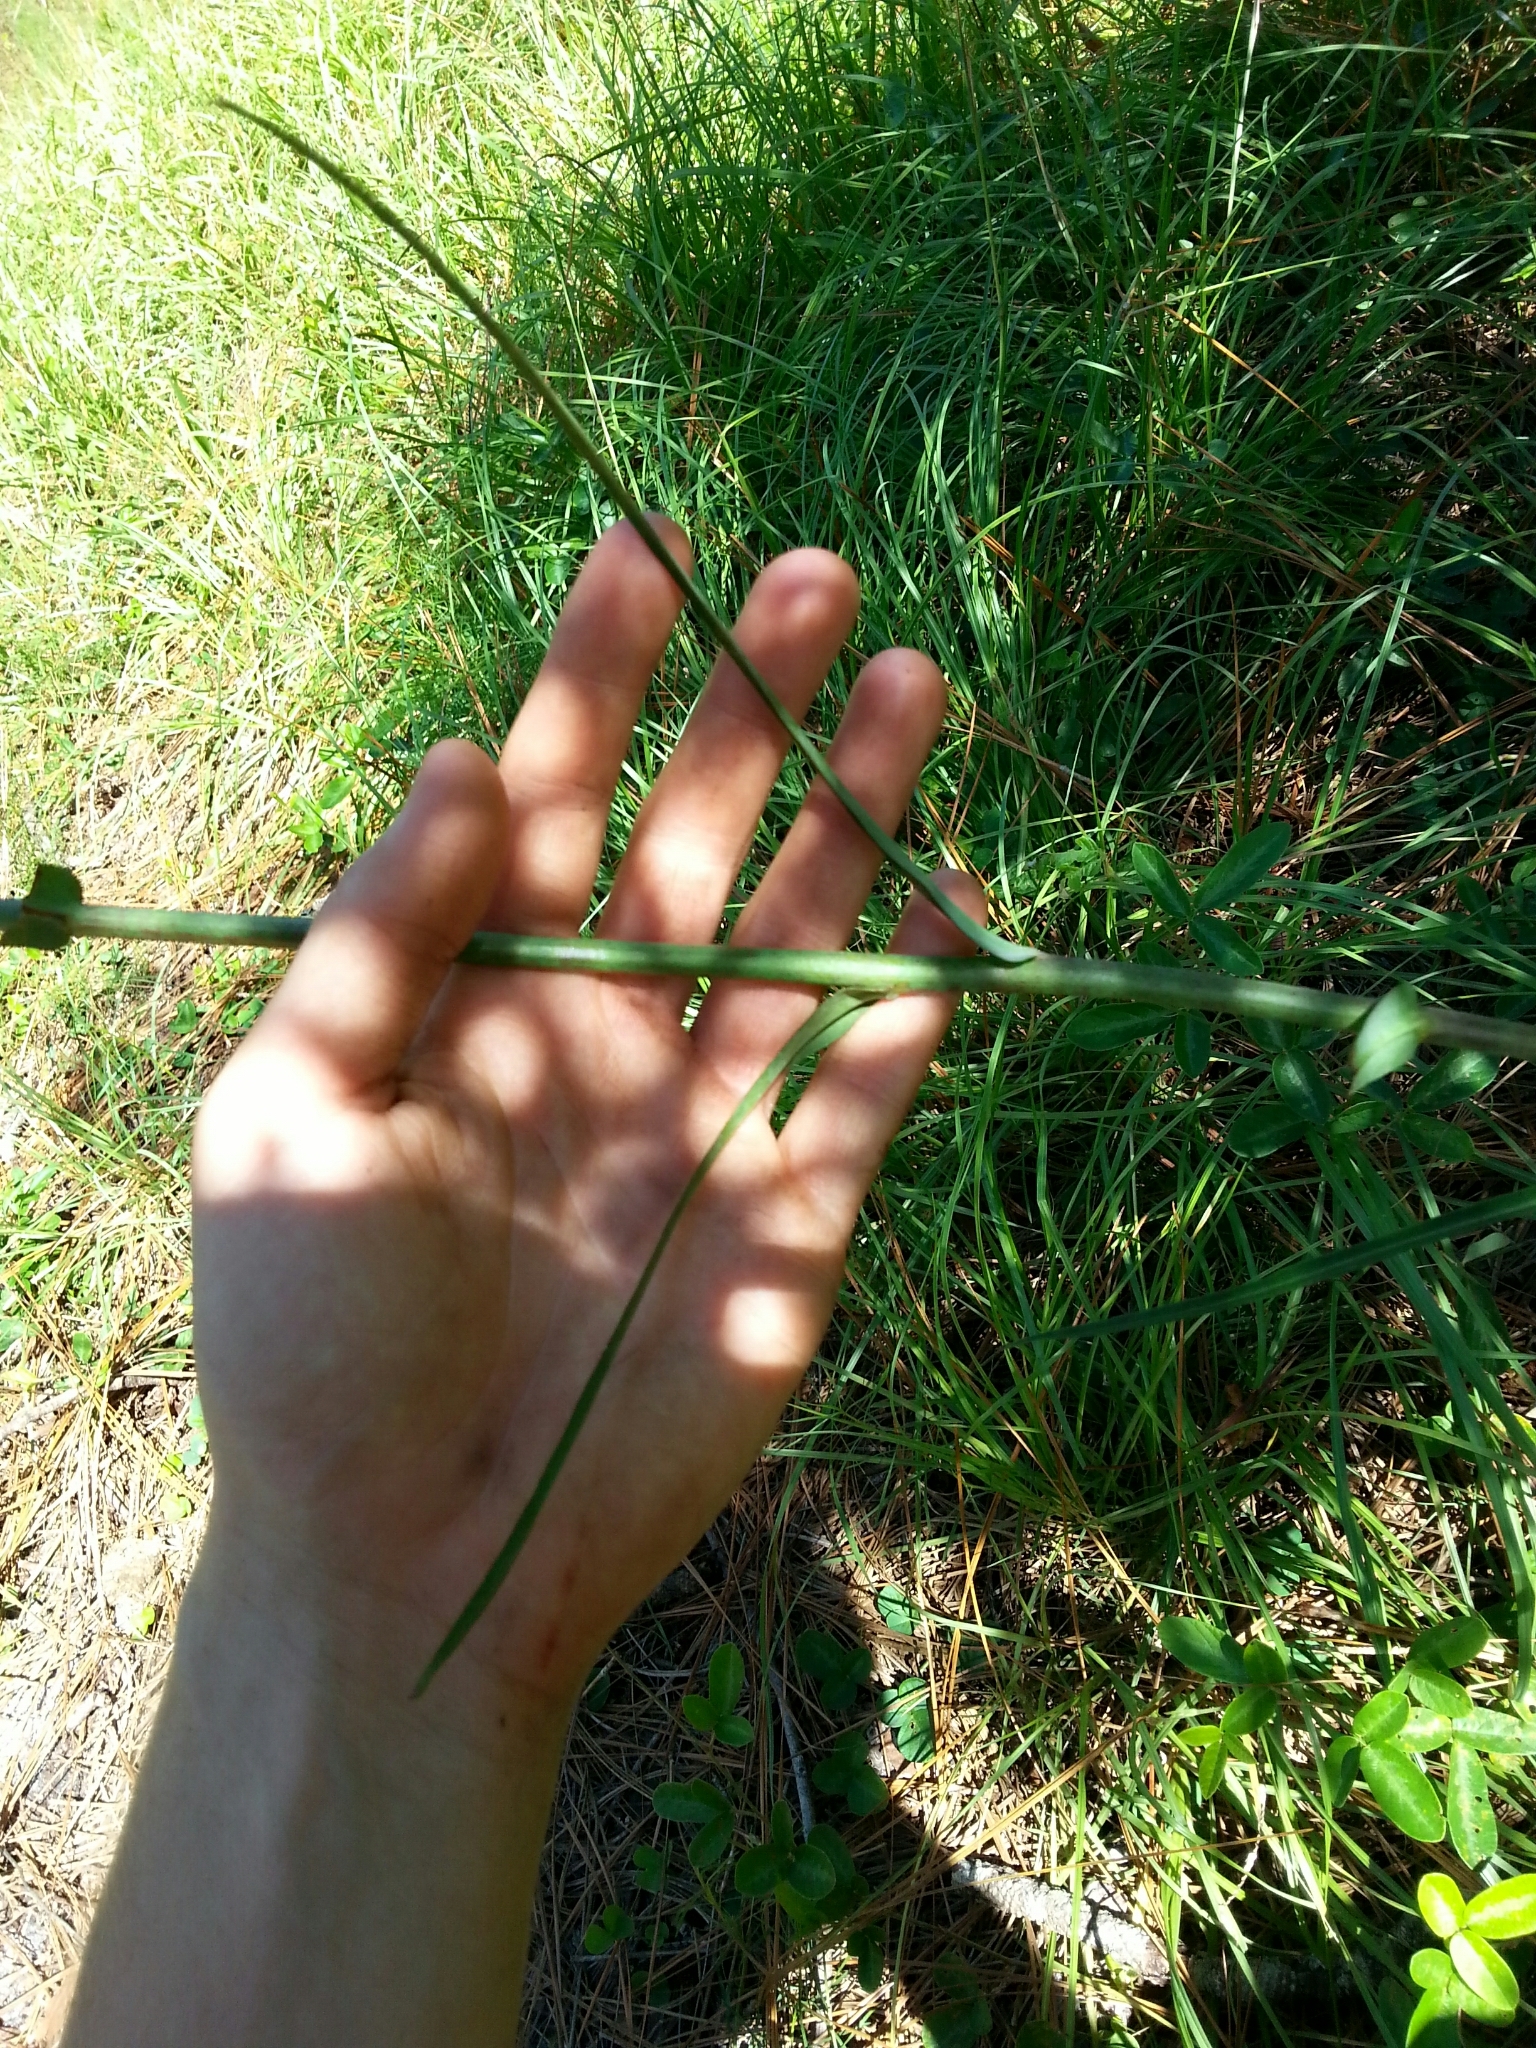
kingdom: Plantae
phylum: Tracheophyta
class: Magnoliopsida
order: Asterales
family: Asteraceae
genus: Lactuca
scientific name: Lactuca graminifolia
